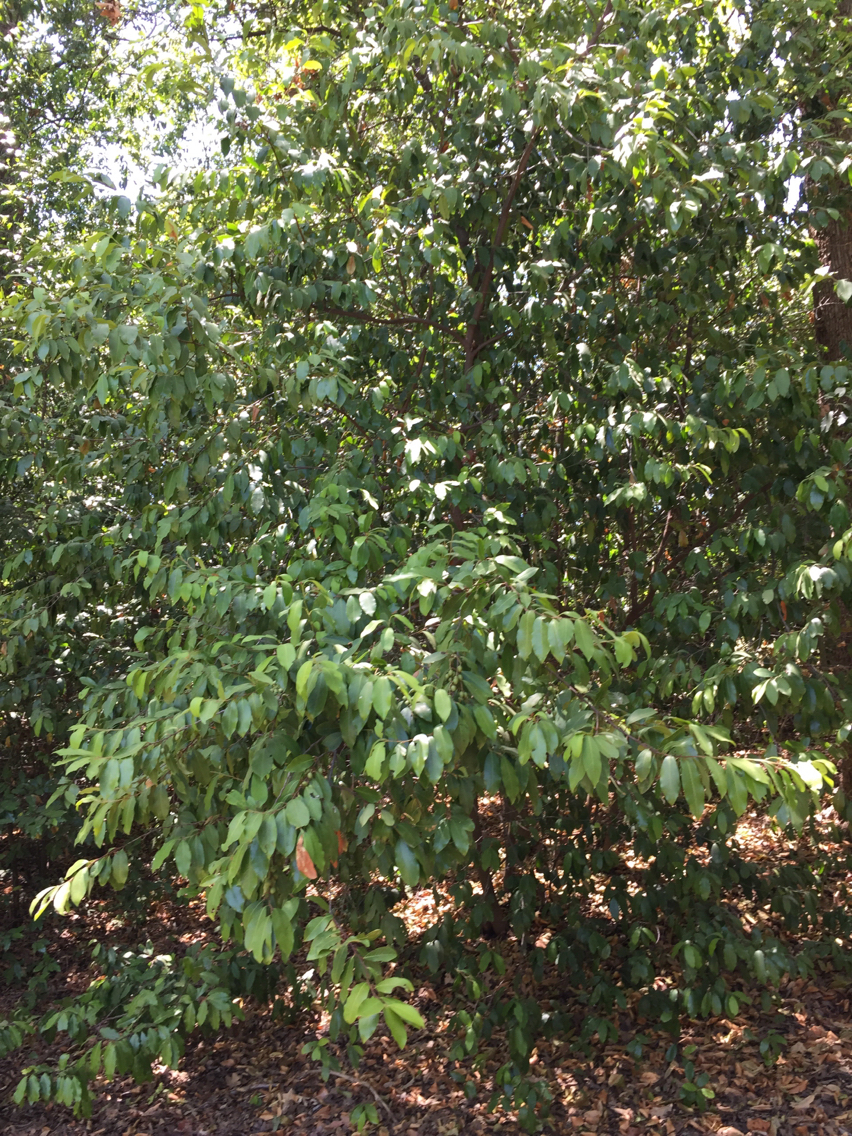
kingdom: Plantae
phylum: Tracheophyta
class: Magnoliopsida
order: Rosales
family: Rosaceae
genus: Prunus
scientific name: Prunus caroliniana
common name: Carolina laurel cherry
